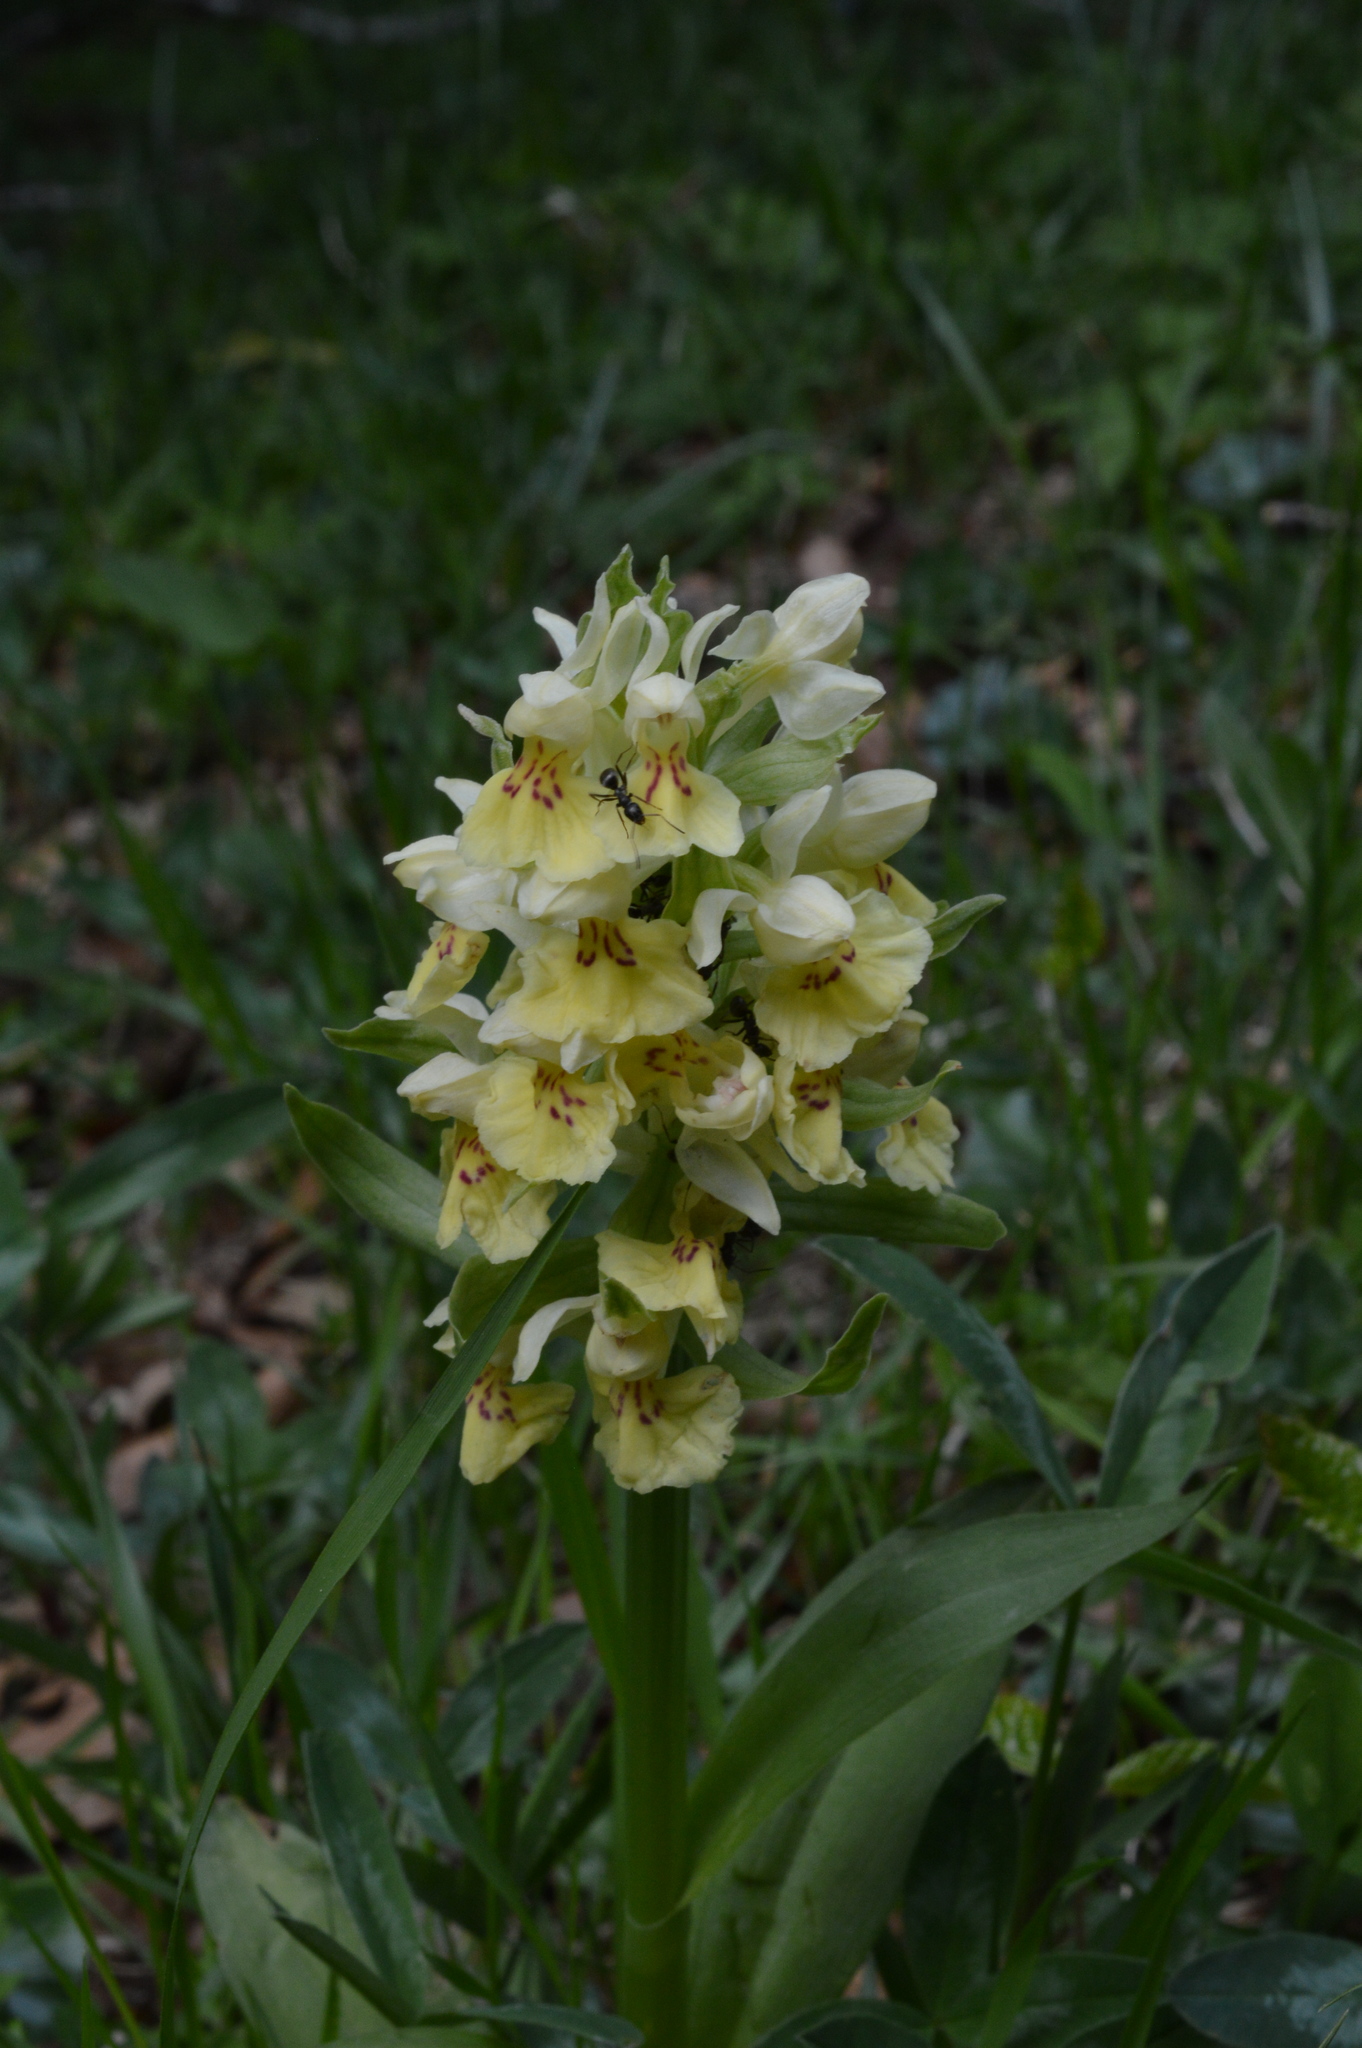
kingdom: Plantae
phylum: Tracheophyta
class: Liliopsida
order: Asparagales
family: Orchidaceae
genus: Dactylorhiza
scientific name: Dactylorhiza sambucina
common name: Elder-flowered orchid
